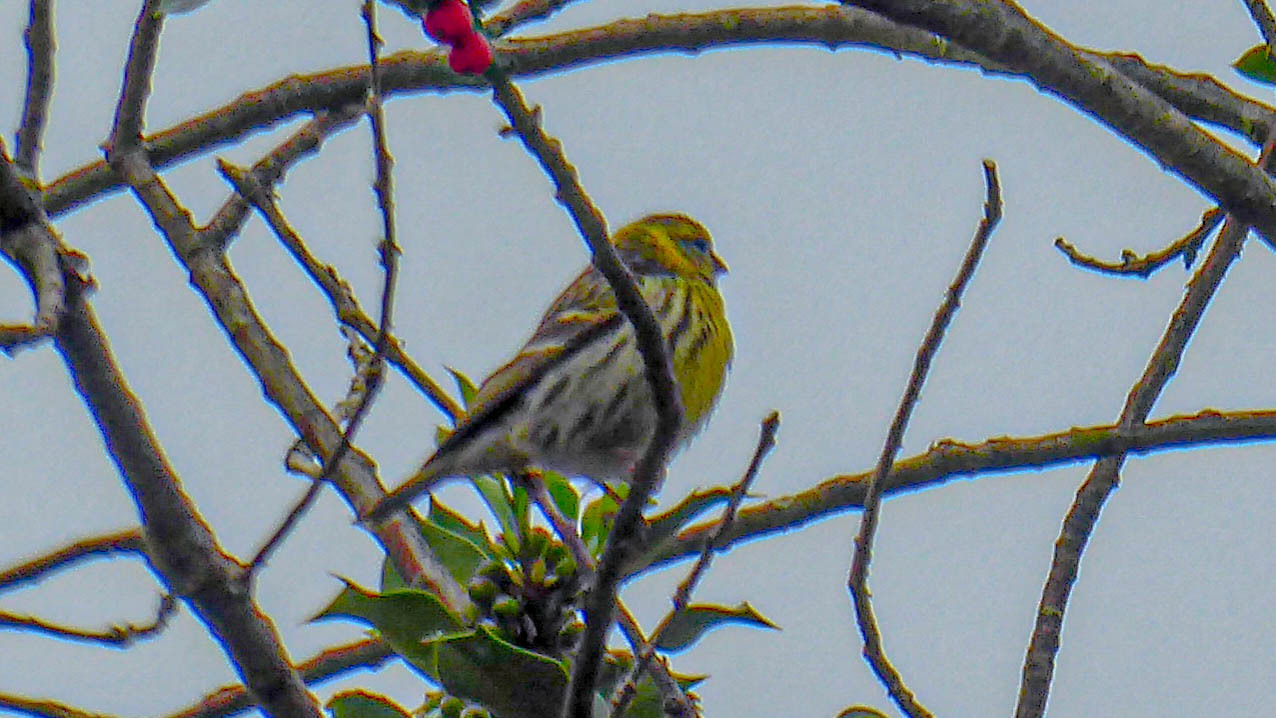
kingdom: Animalia
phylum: Chordata
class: Aves
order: Passeriformes
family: Fringillidae
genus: Serinus
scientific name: Serinus serinus
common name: European serin
